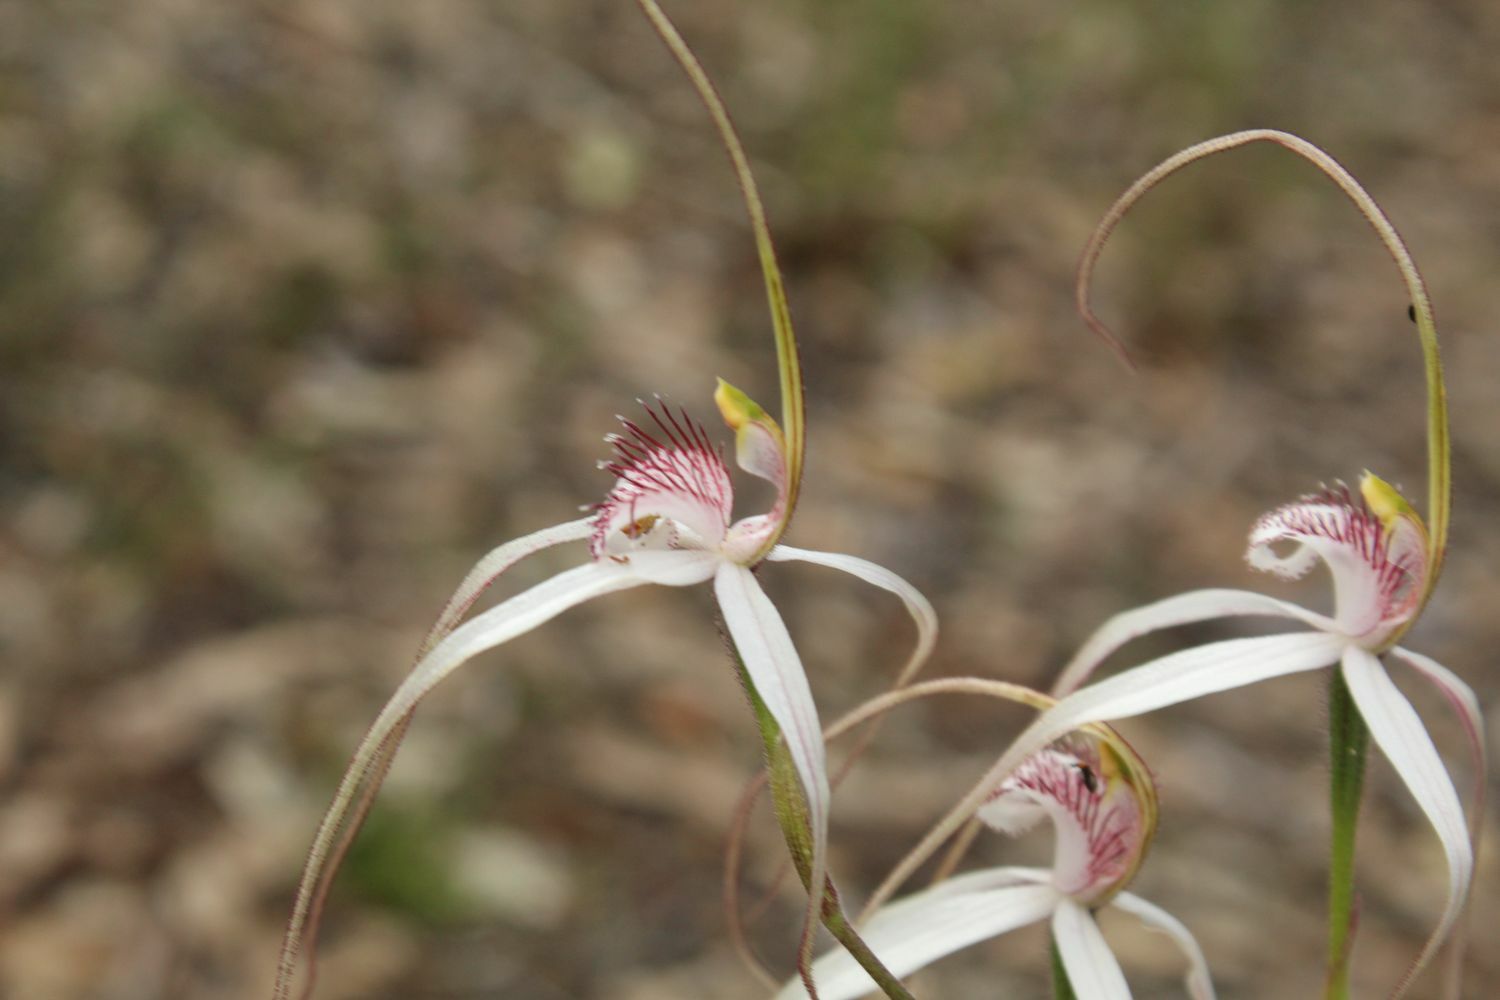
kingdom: Plantae
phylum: Tracheophyta
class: Liliopsida
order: Asparagales
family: Orchidaceae
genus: Caladenia
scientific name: Caladenia longicauda
